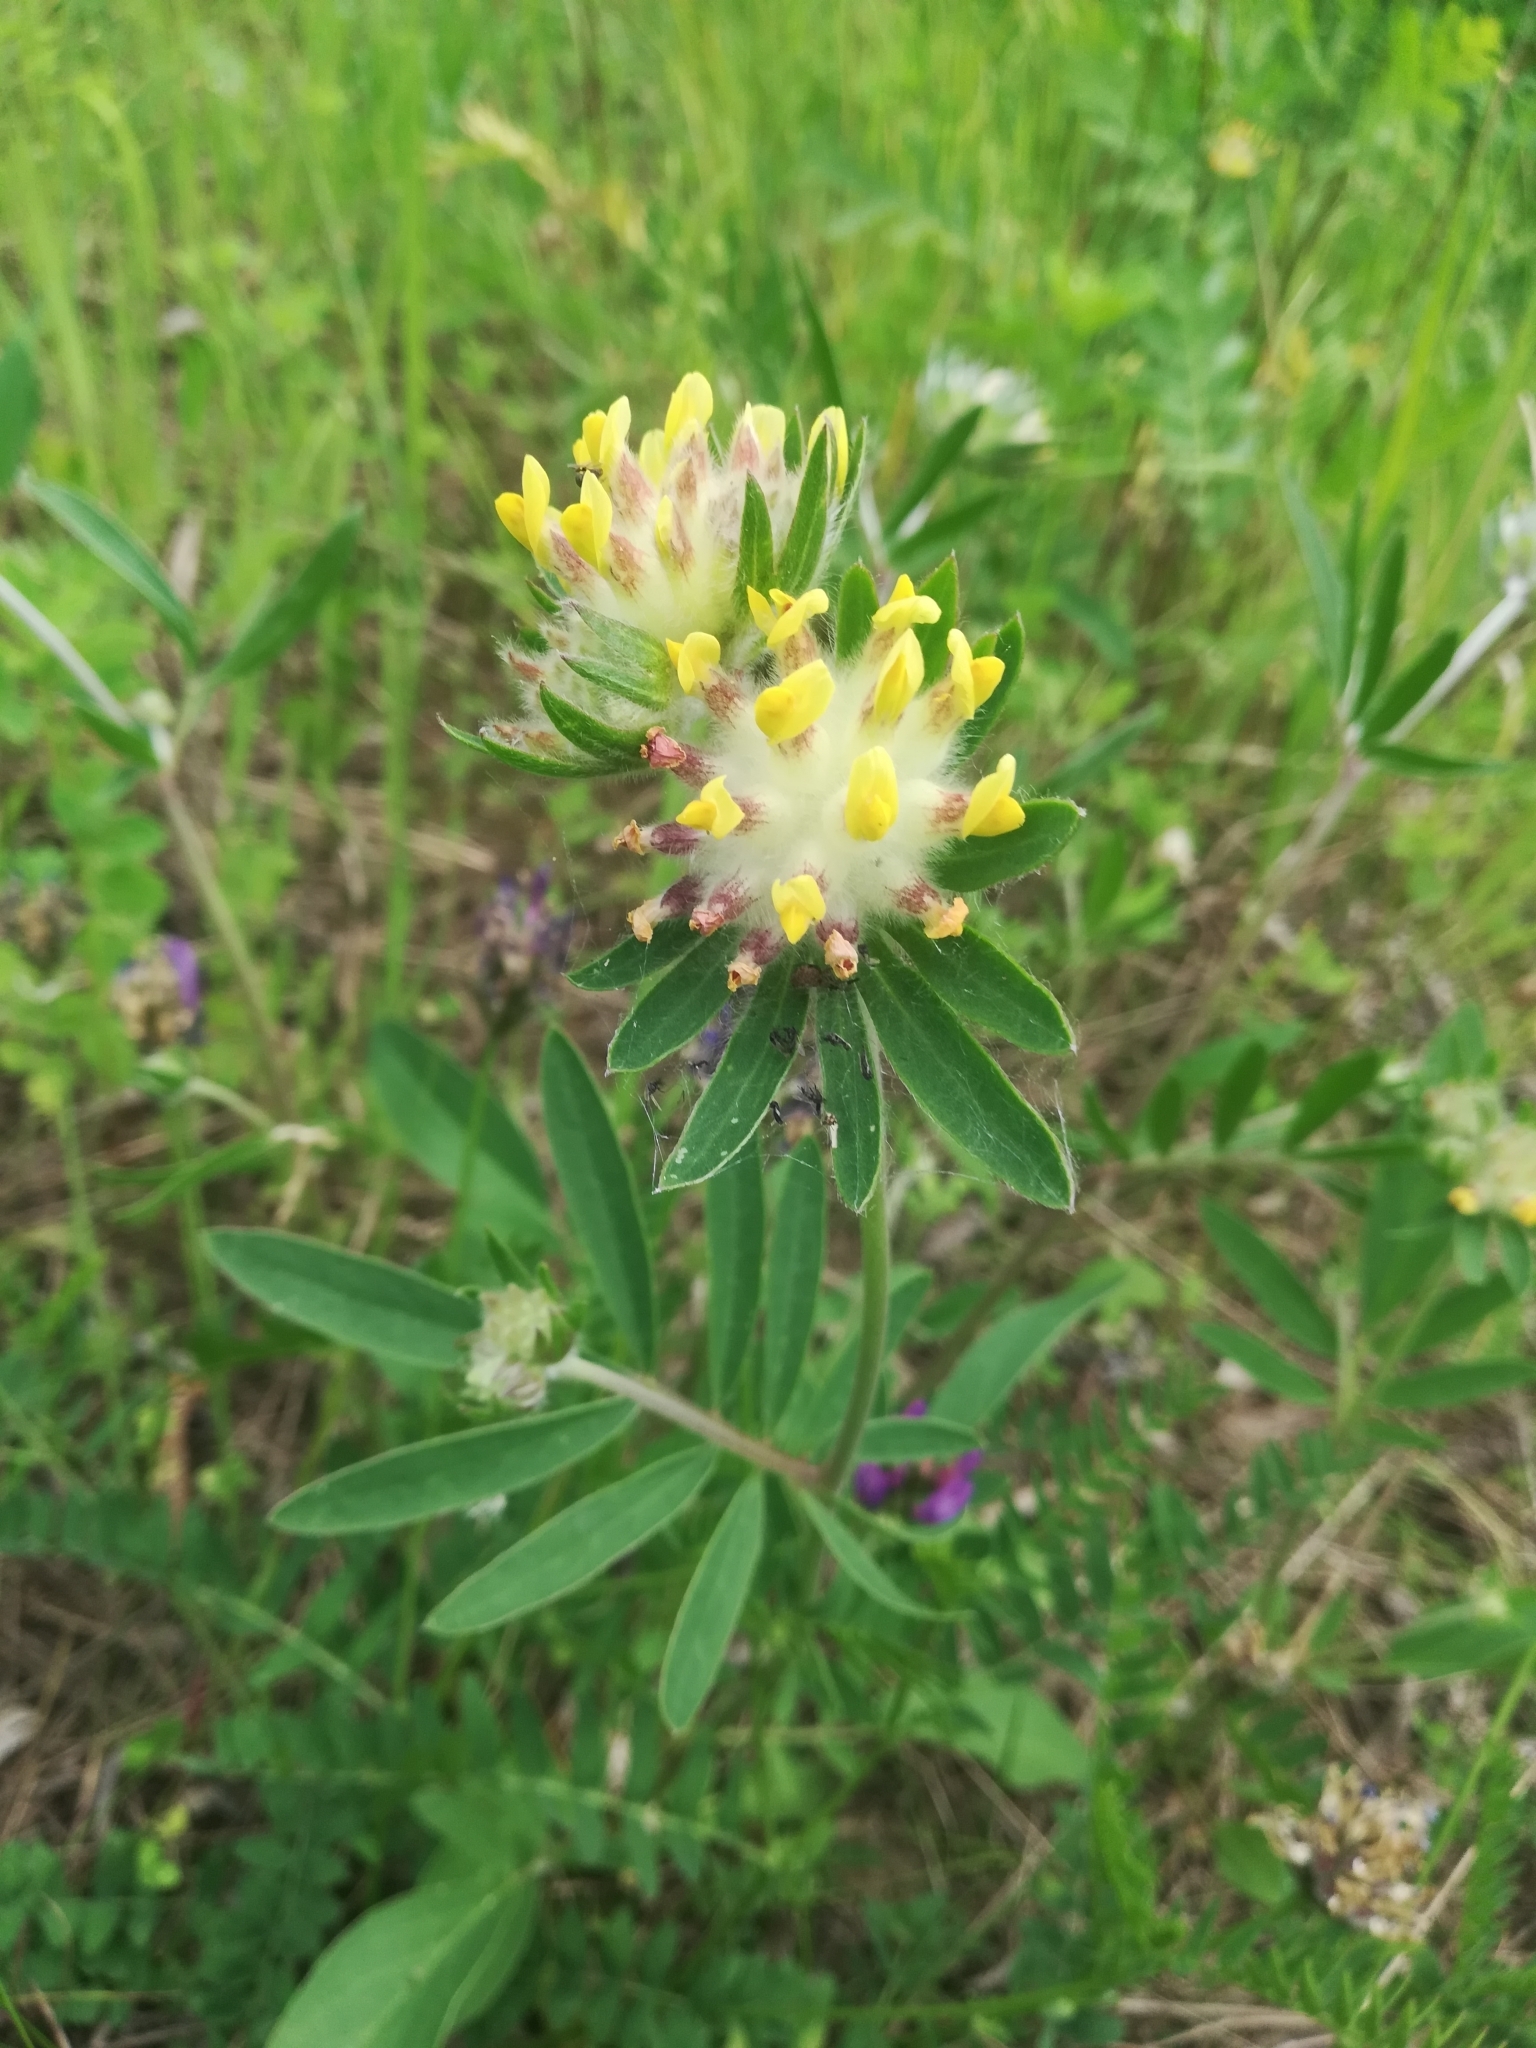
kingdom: Plantae
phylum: Tracheophyta
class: Magnoliopsida
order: Fabales
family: Fabaceae
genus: Anthyllis
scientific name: Anthyllis vulneraria
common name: Kidney vetch
